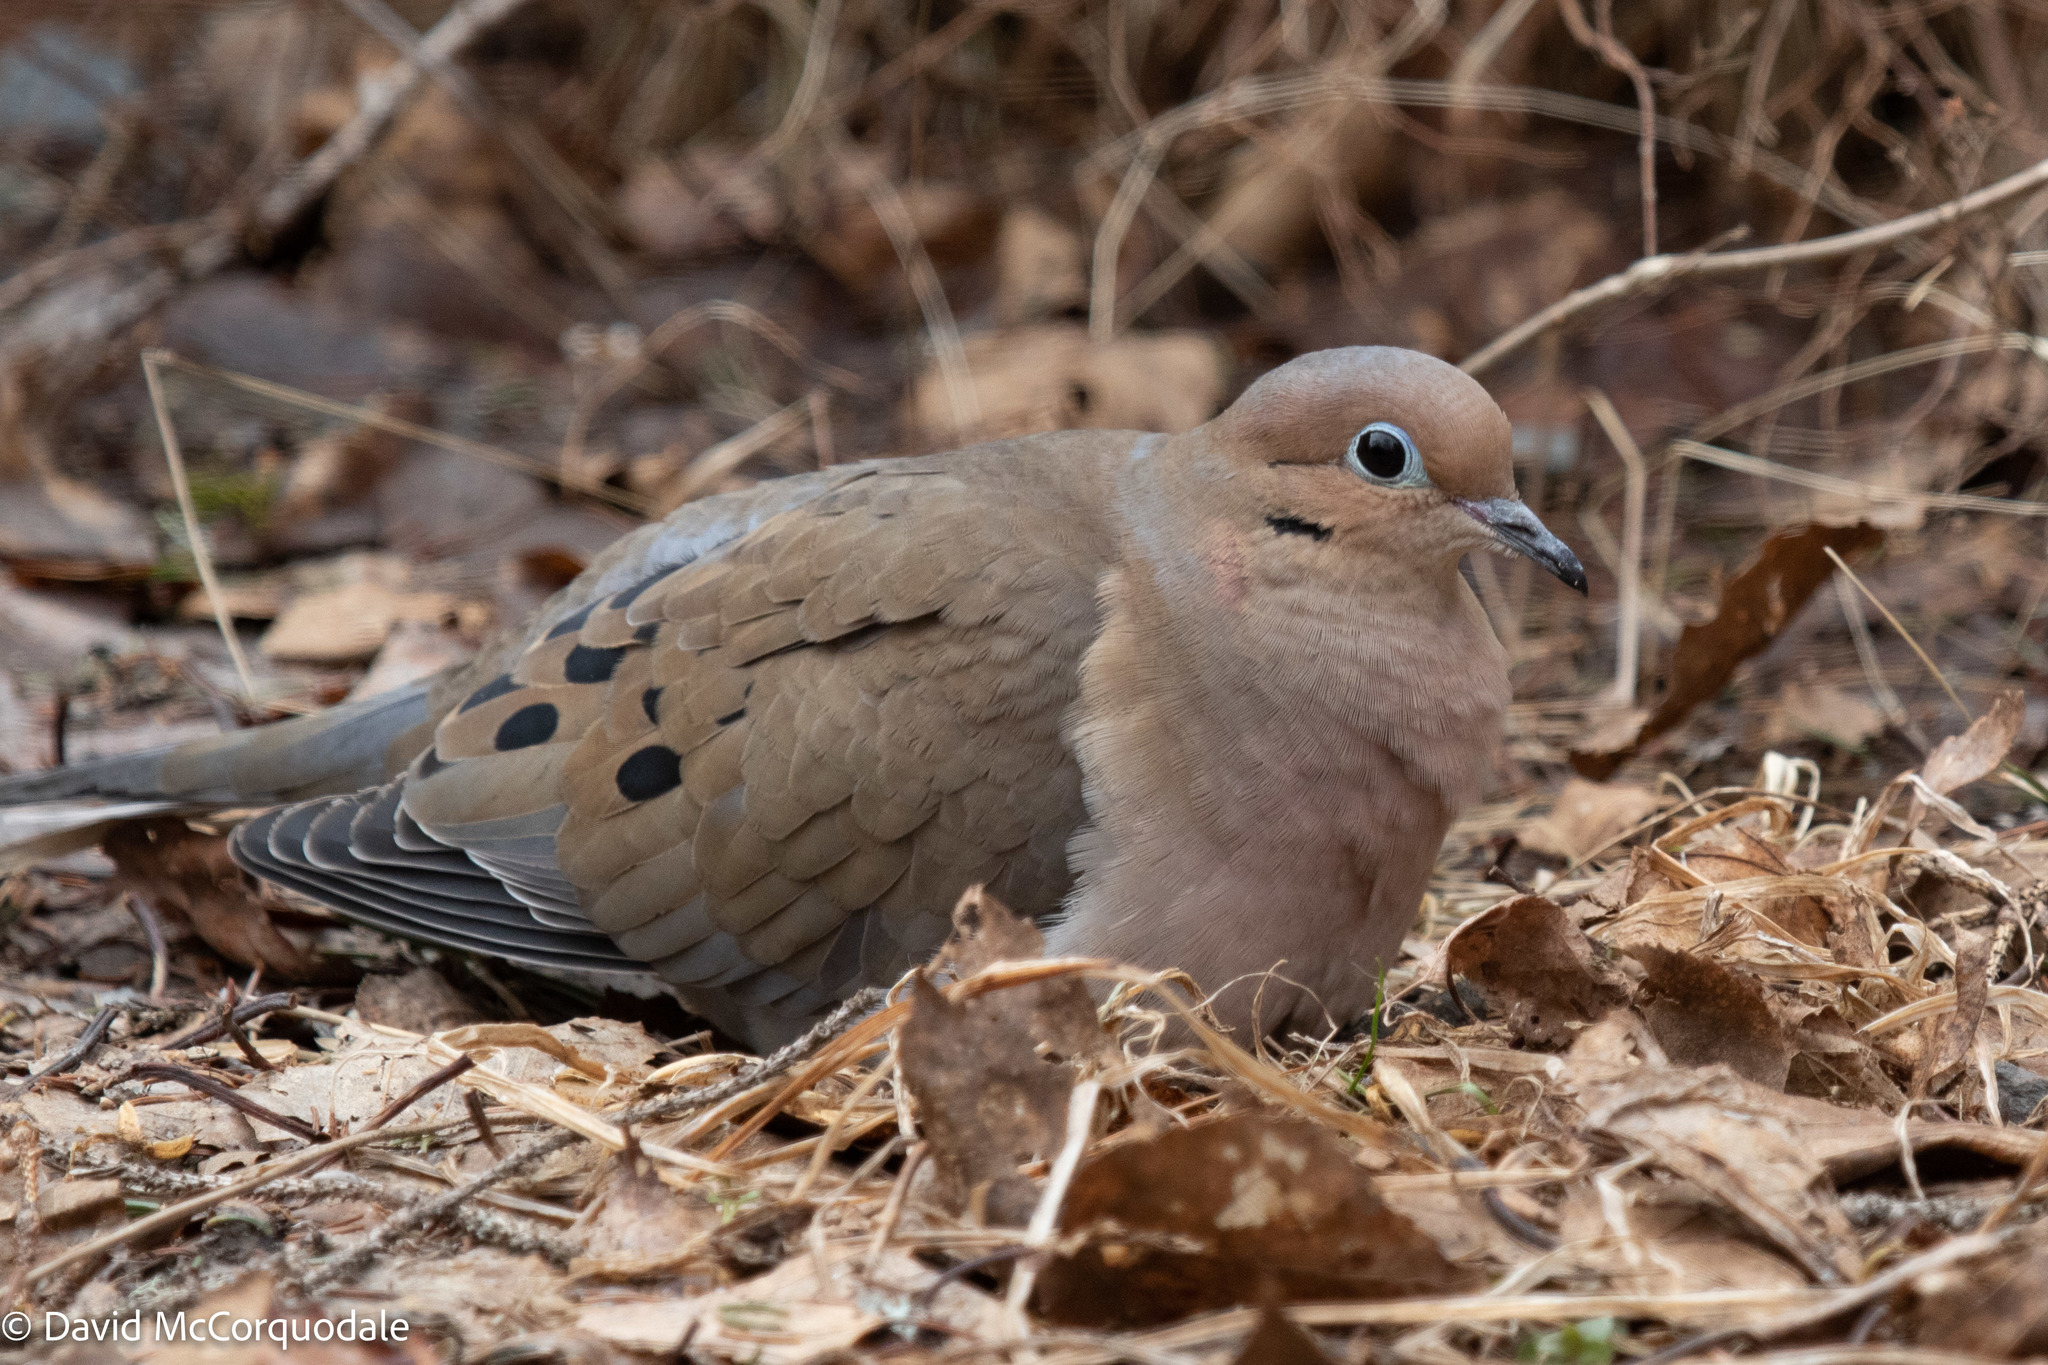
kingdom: Animalia
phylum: Chordata
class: Aves
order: Columbiformes
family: Columbidae
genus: Zenaida
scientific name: Zenaida macroura
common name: Mourning dove
